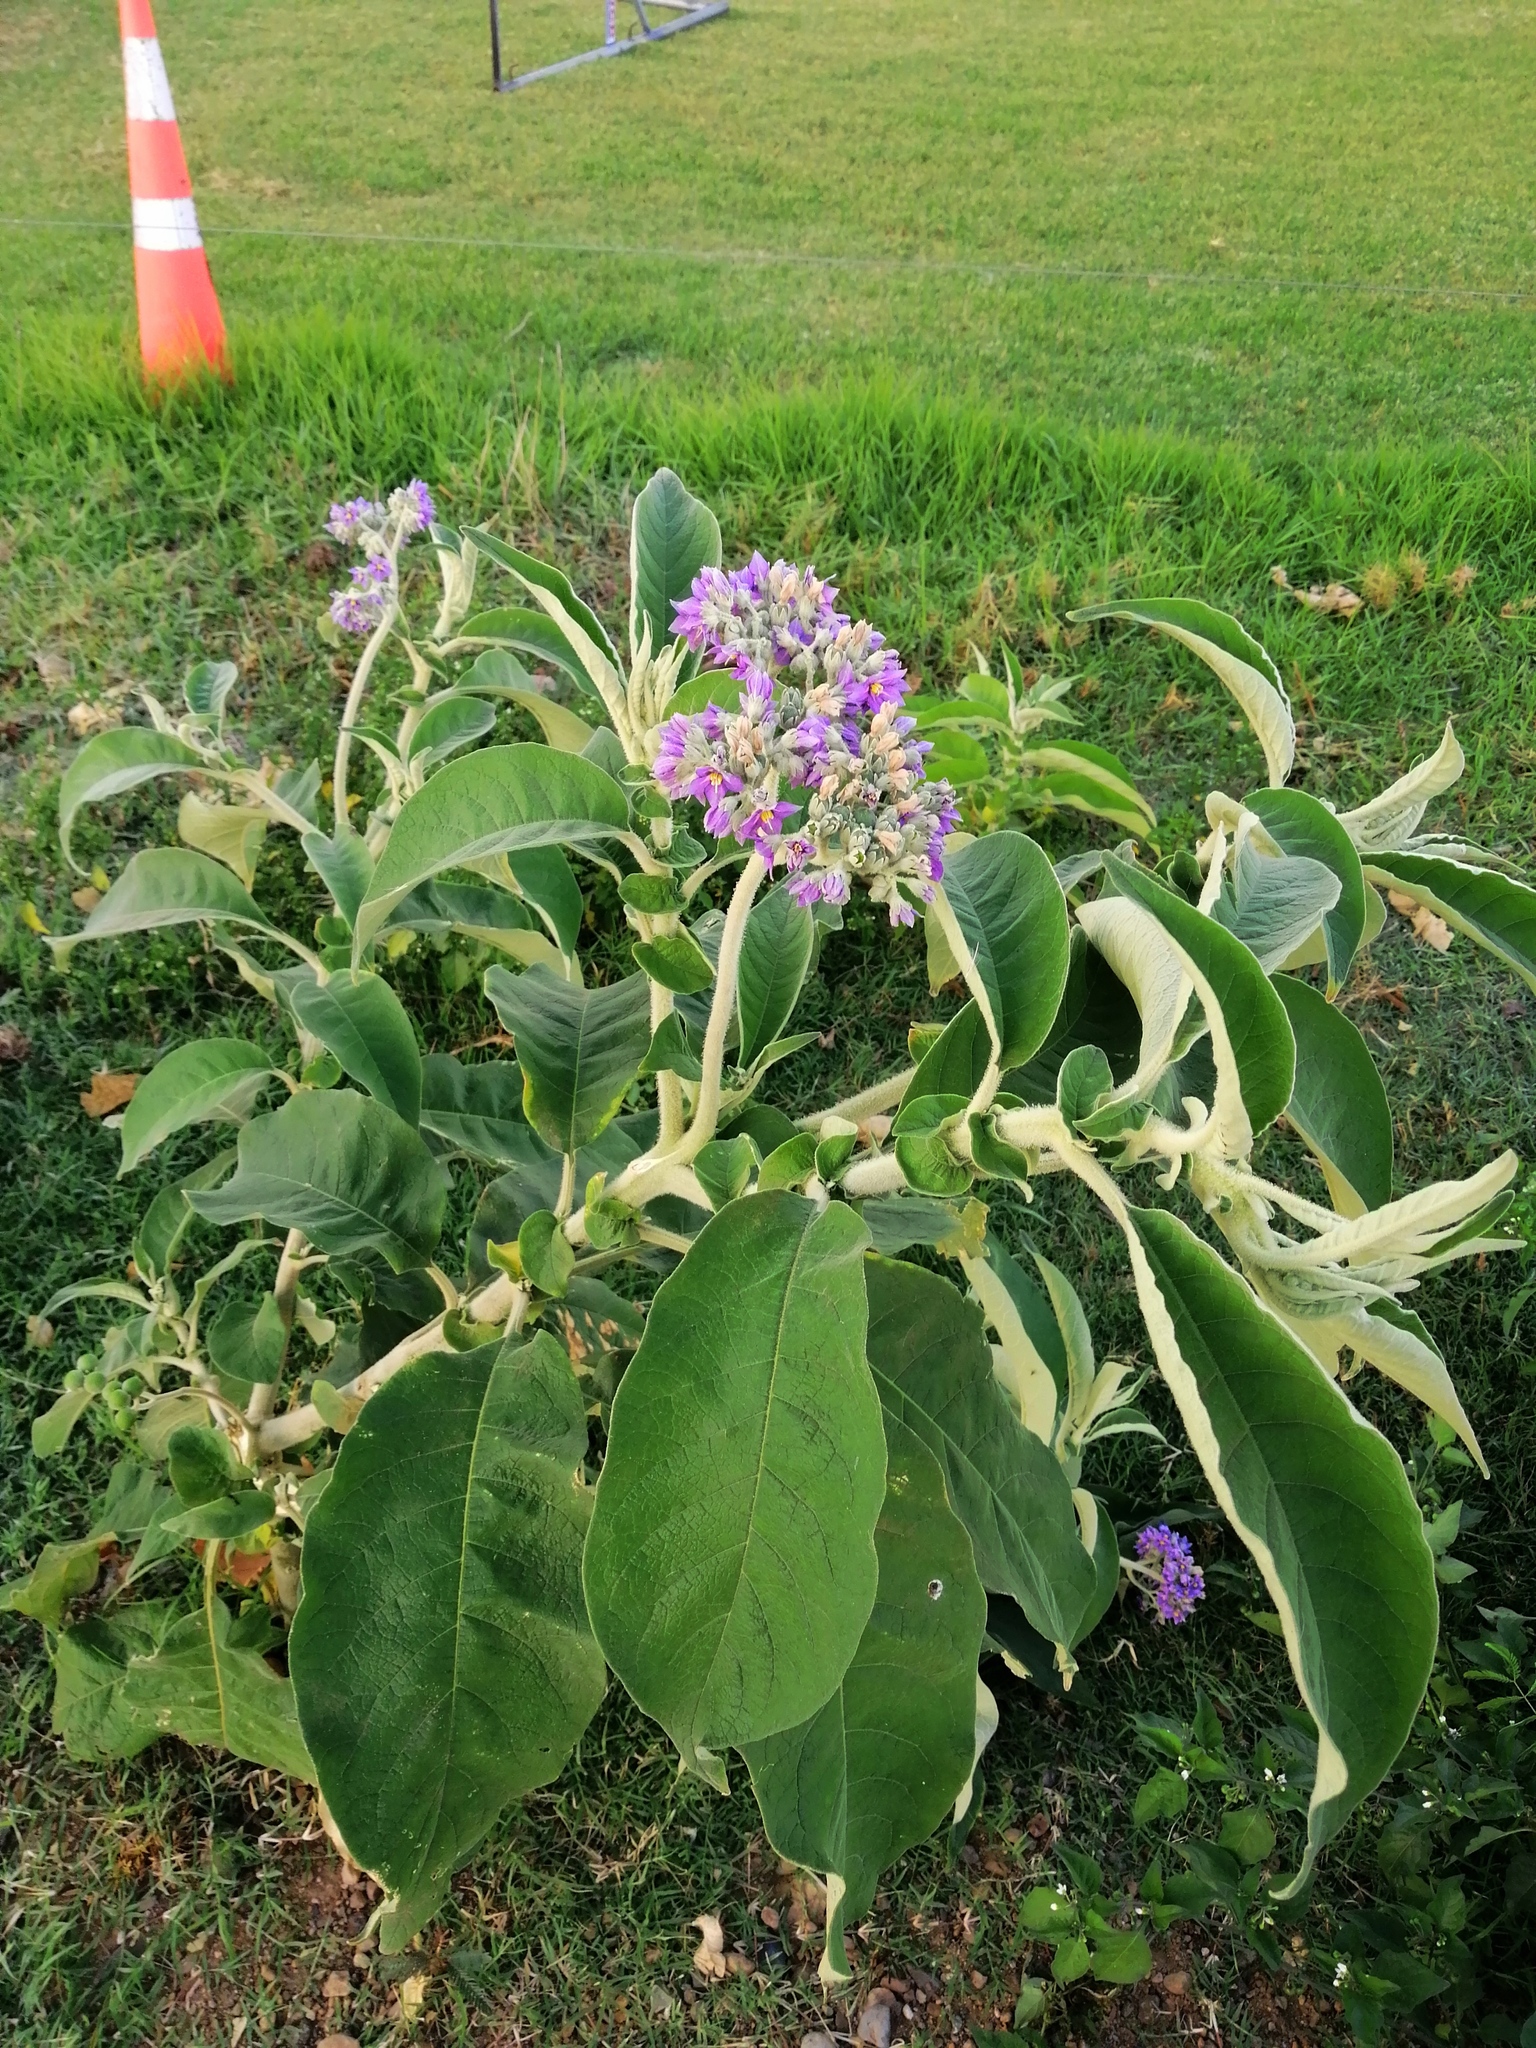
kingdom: Plantae
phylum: Tracheophyta
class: Magnoliopsida
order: Solanales
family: Solanaceae
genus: Solanum
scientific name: Solanum mauritianum
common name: Earleaf nightshade
